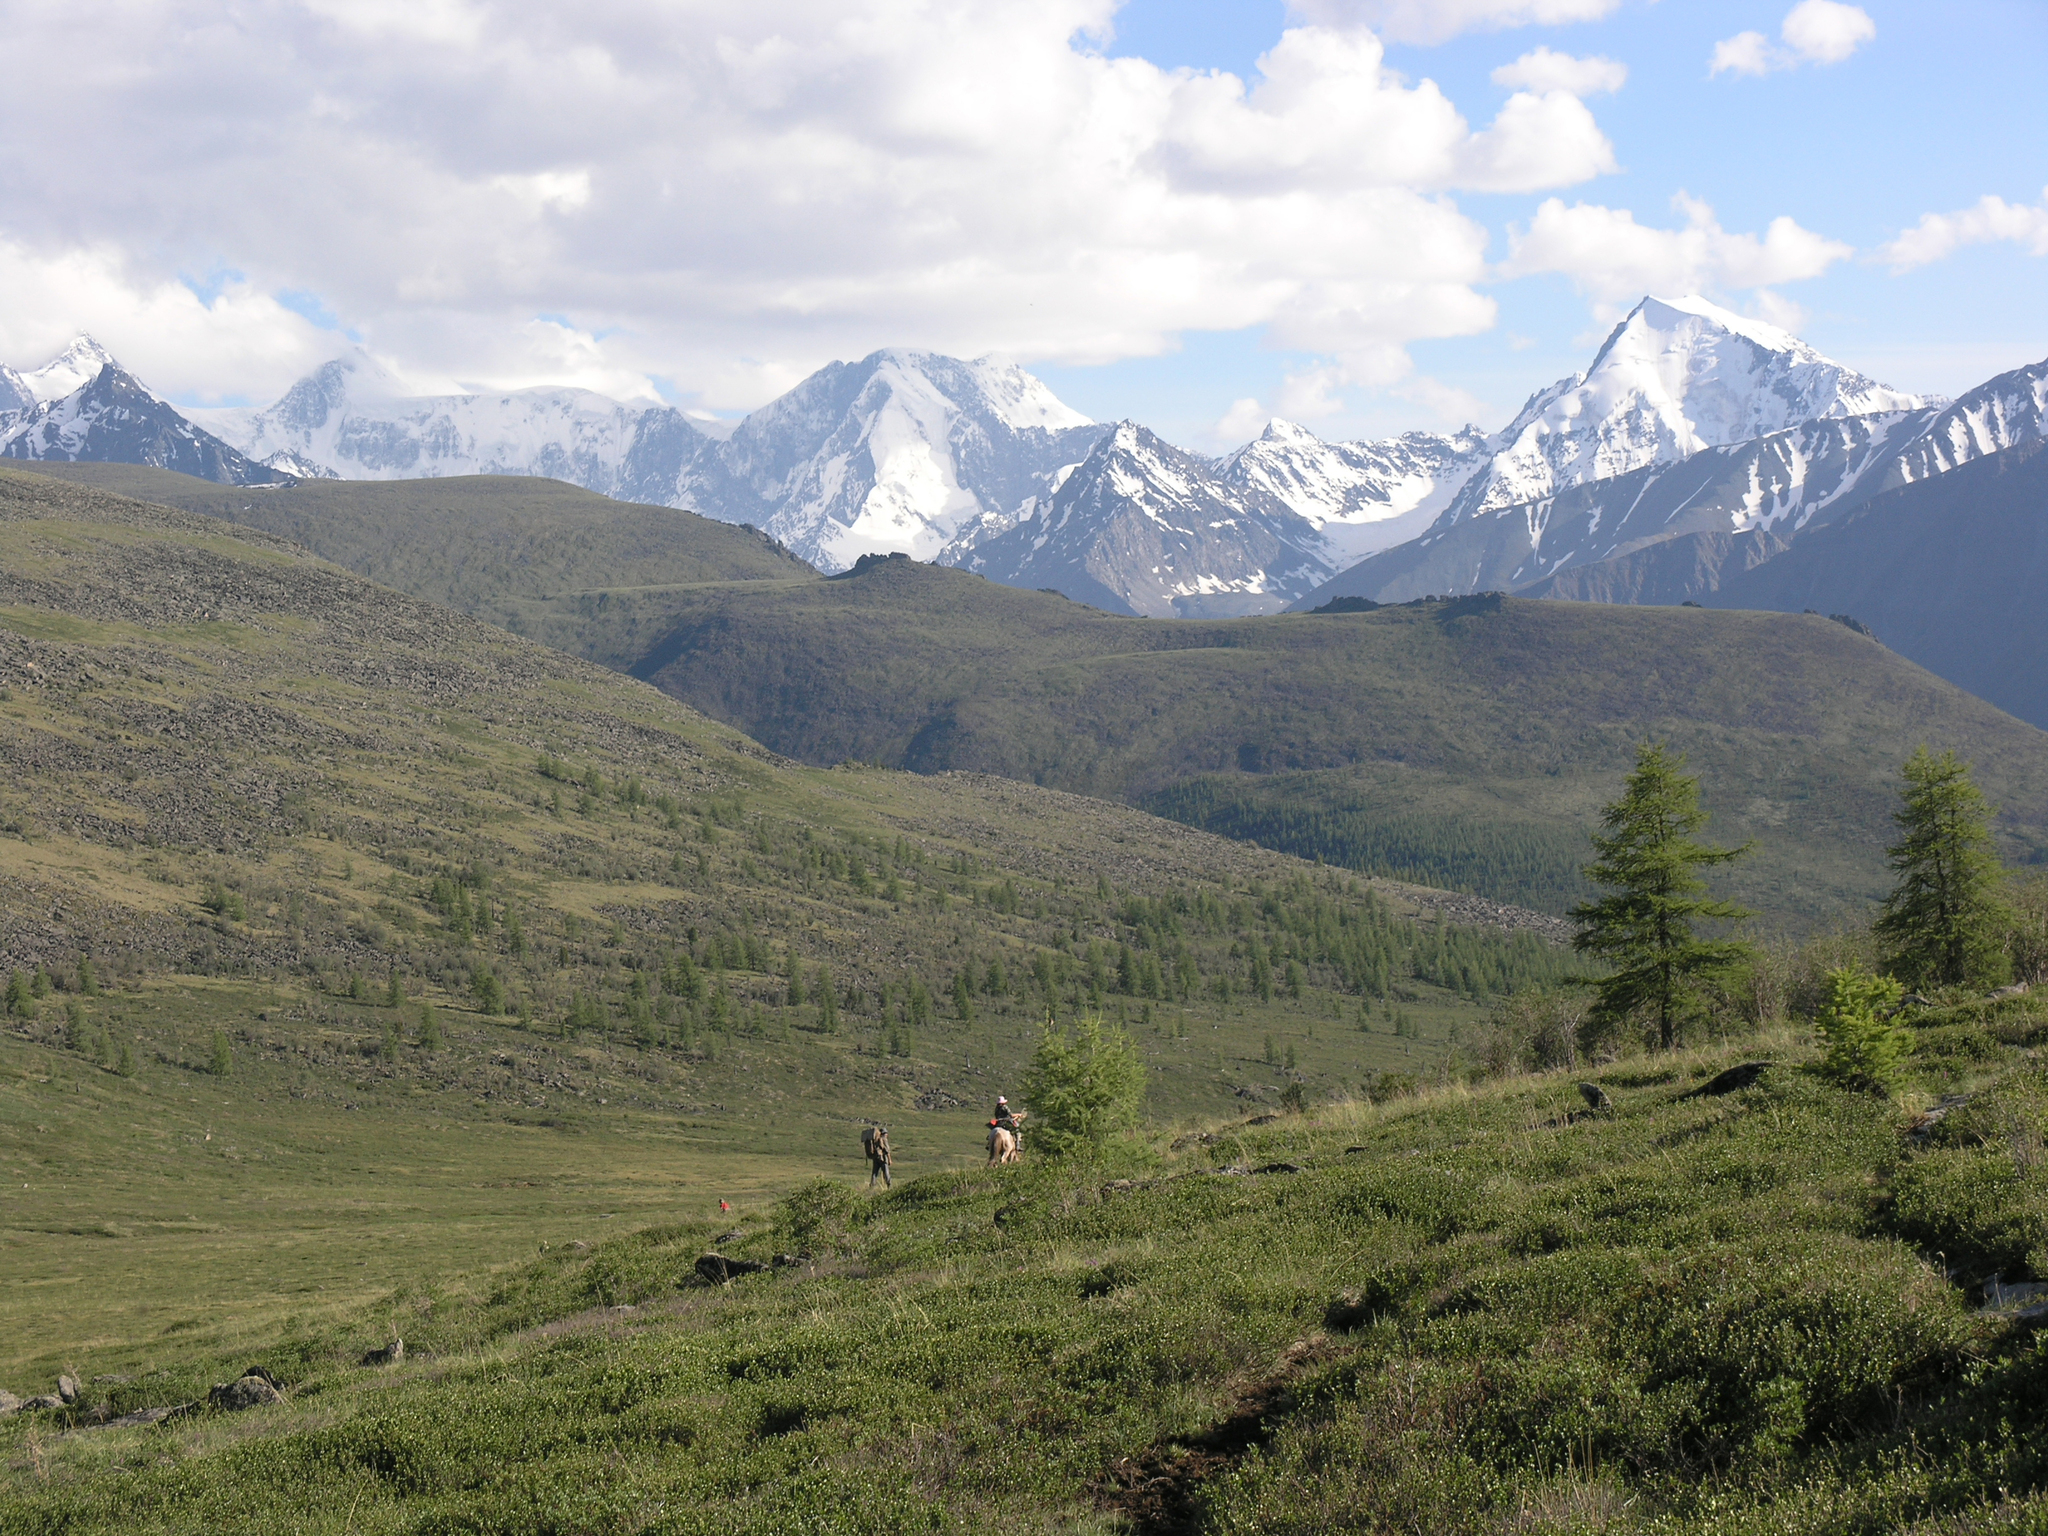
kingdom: Plantae
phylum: Tracheophyta
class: Pinopsida
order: Pinales
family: Pinaceae
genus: Larix
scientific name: Larix sibirica
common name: Siberian larch
